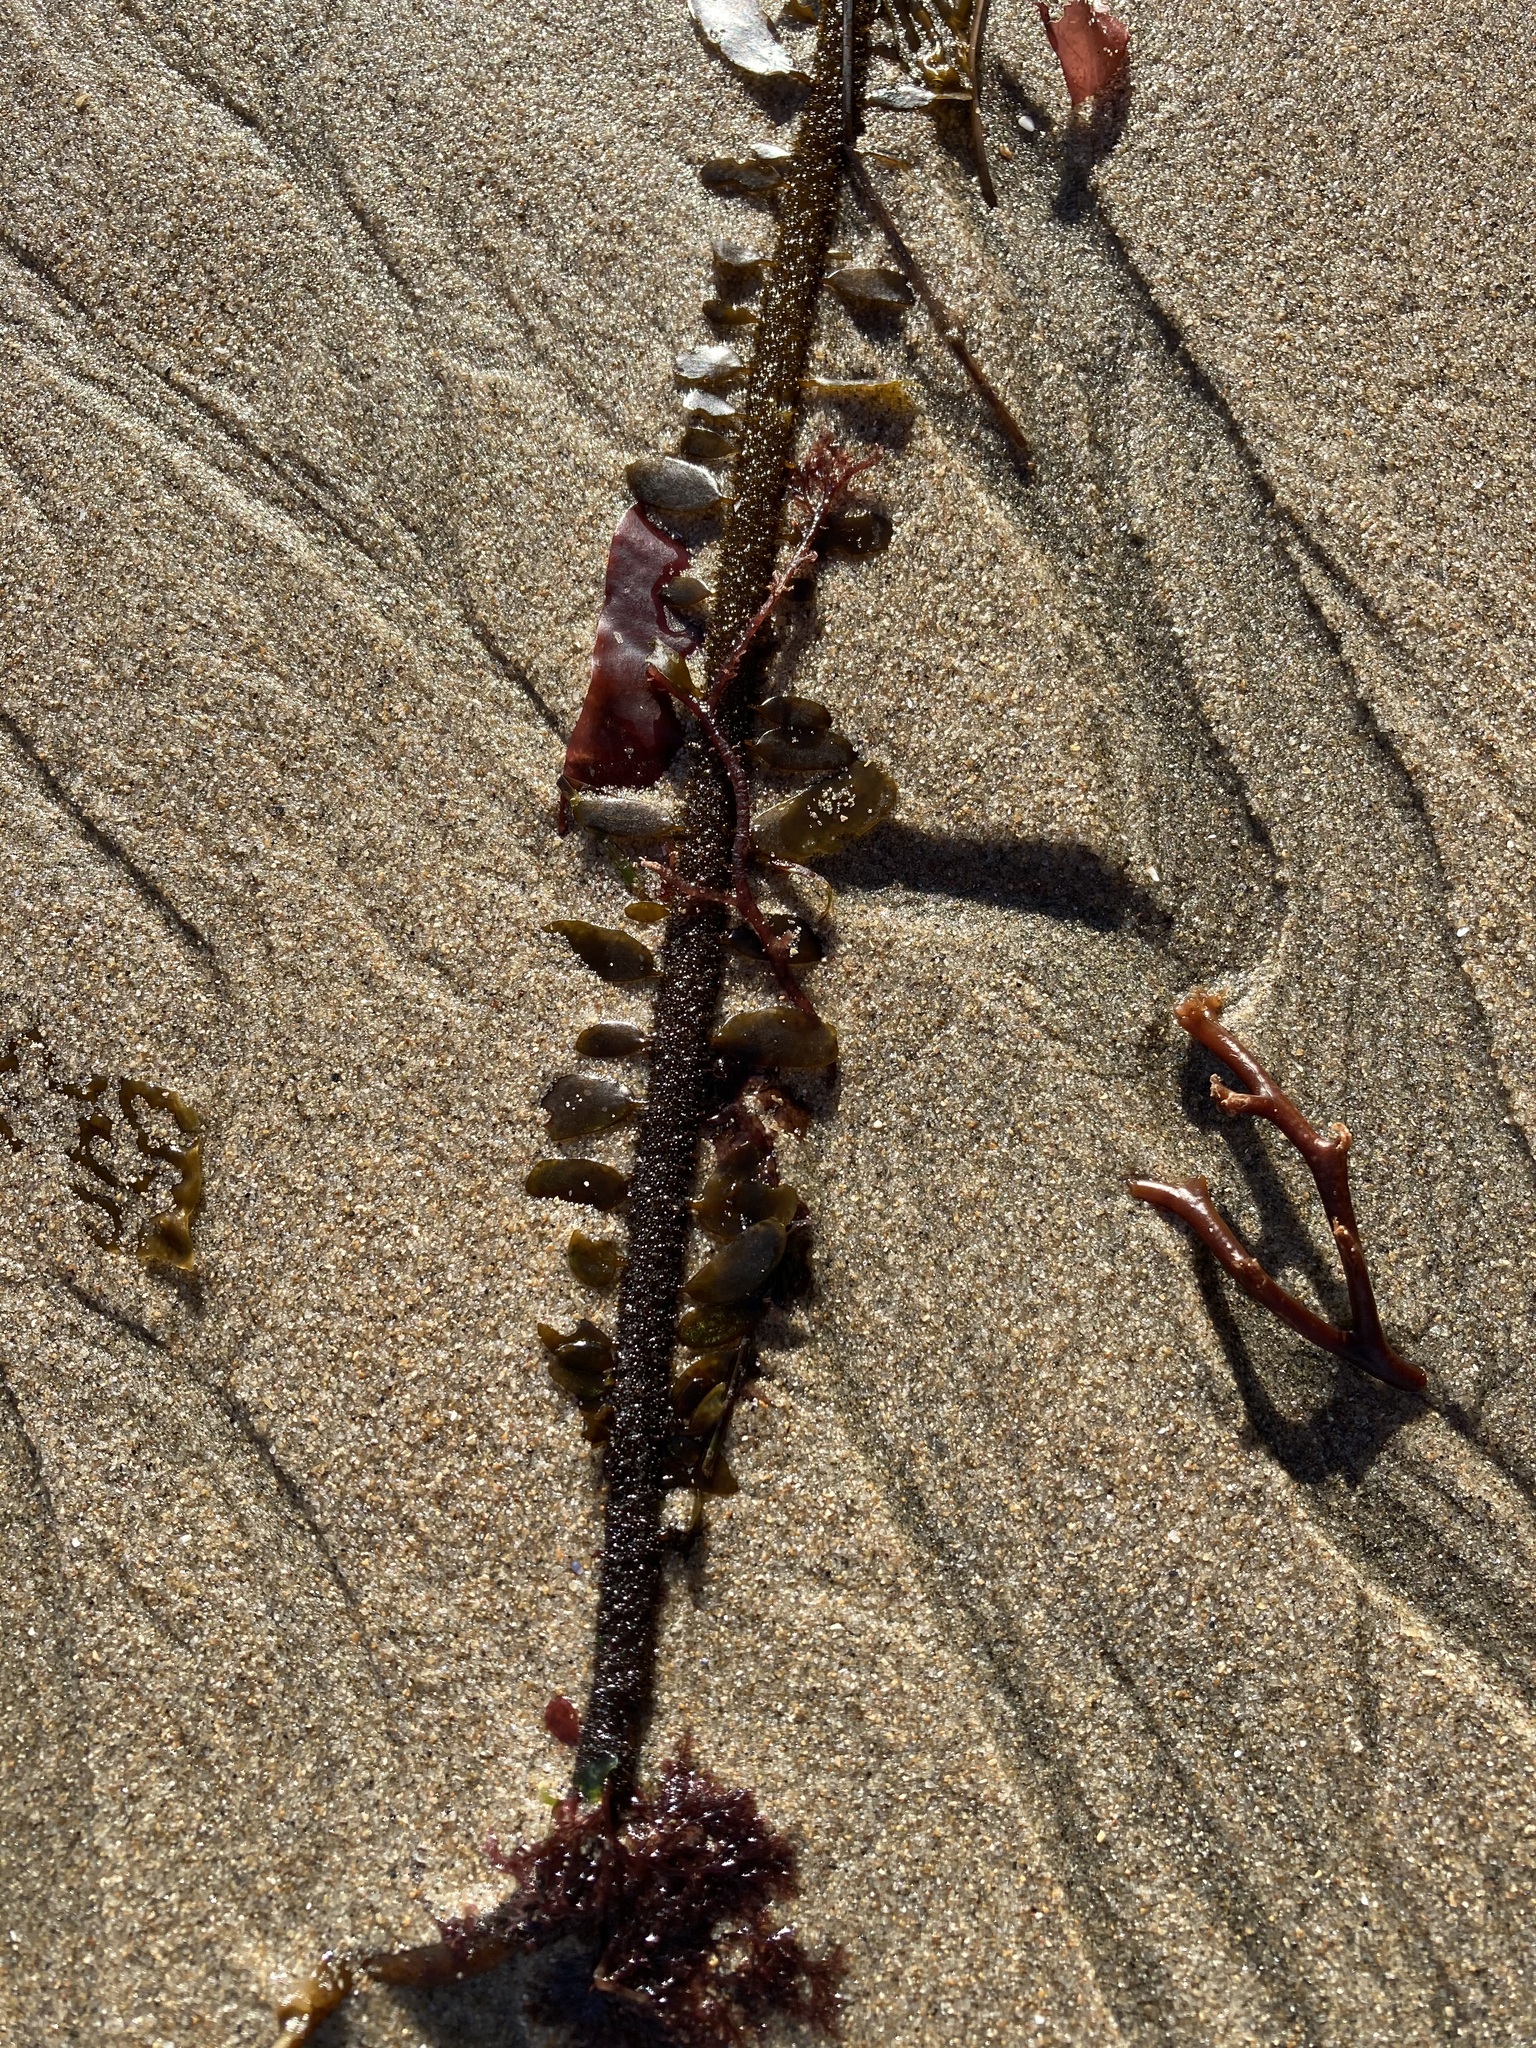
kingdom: Chromista
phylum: Ochrophyta
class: Phaeophyceae
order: Laminariales
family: Lessoniaceae
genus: Egregia
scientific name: Egregia menziesii
